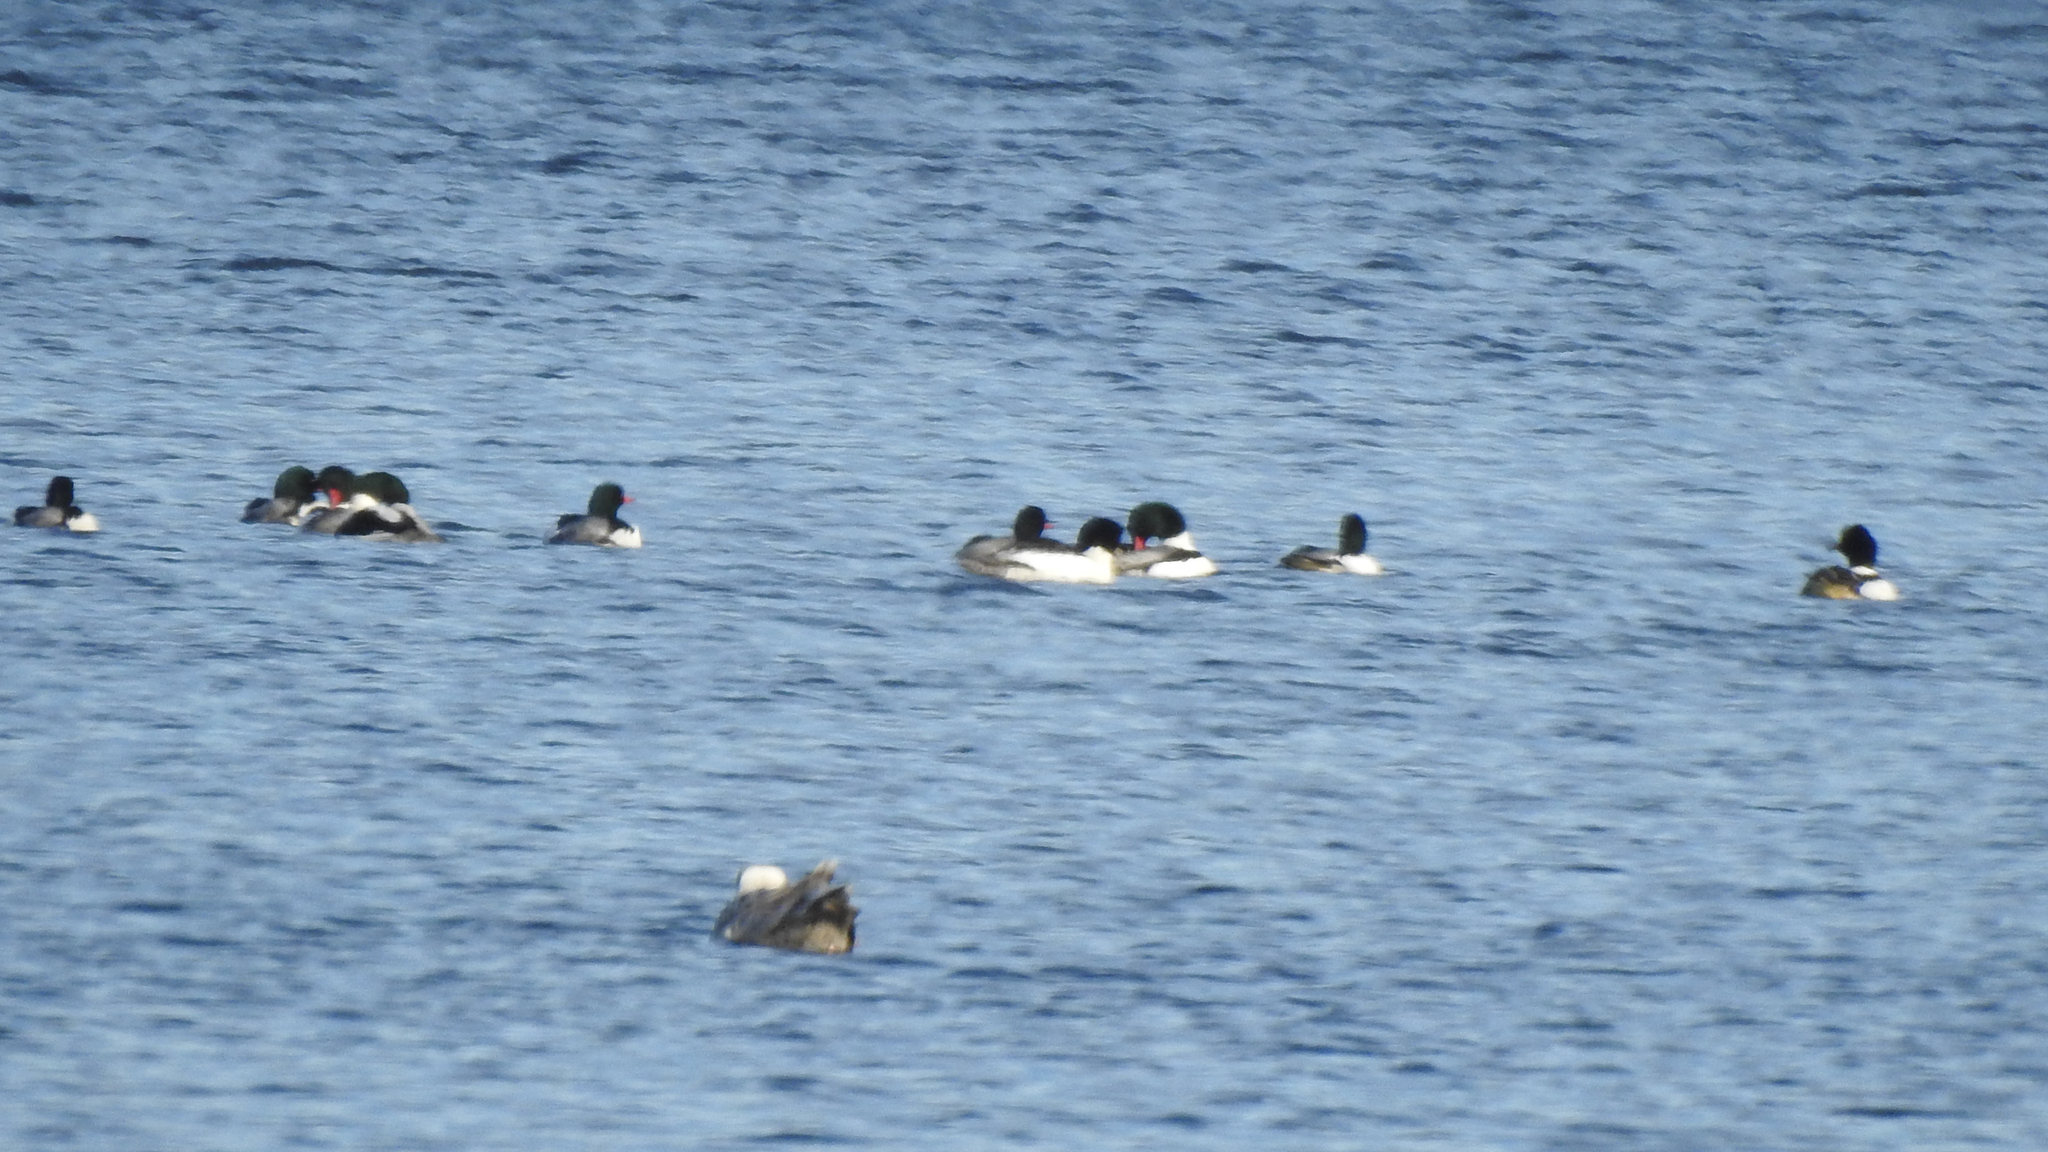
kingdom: Animalia
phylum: Chordata
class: Aves
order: Anseriformes
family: Anatidae
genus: Mergus
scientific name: Mergus merganser
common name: Common merganser
